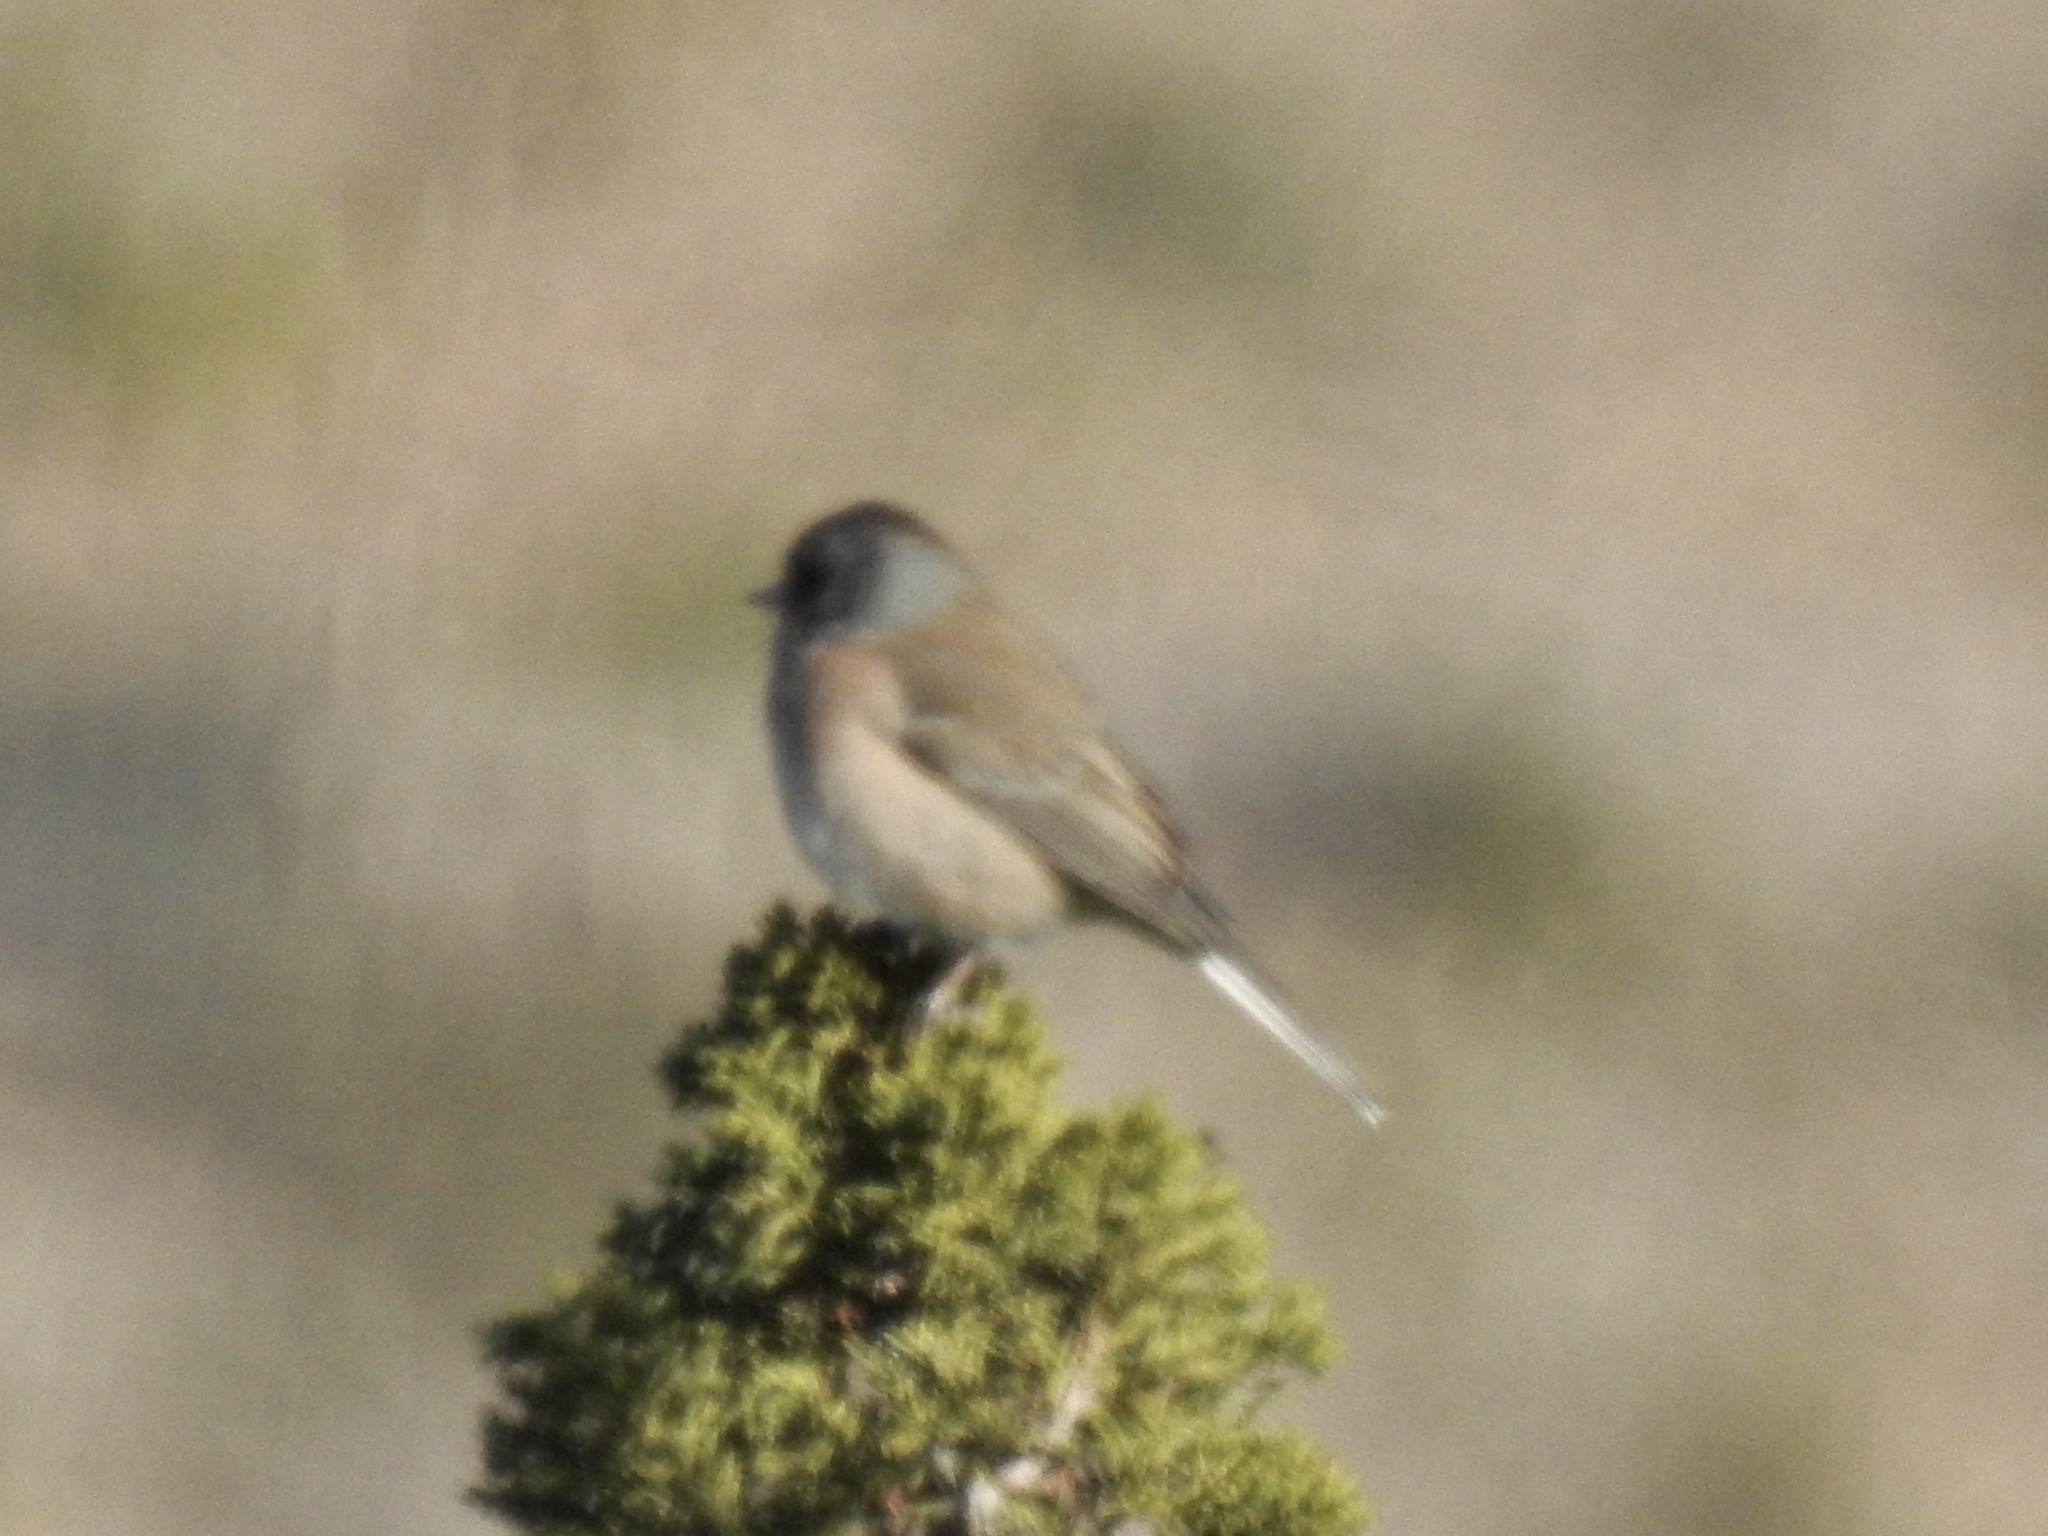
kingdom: Animalia
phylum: Chordata
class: Aves
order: Passeriformes
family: Passerellidae
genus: Junco
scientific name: Junco hyemalis
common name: Dark-eyed junco
